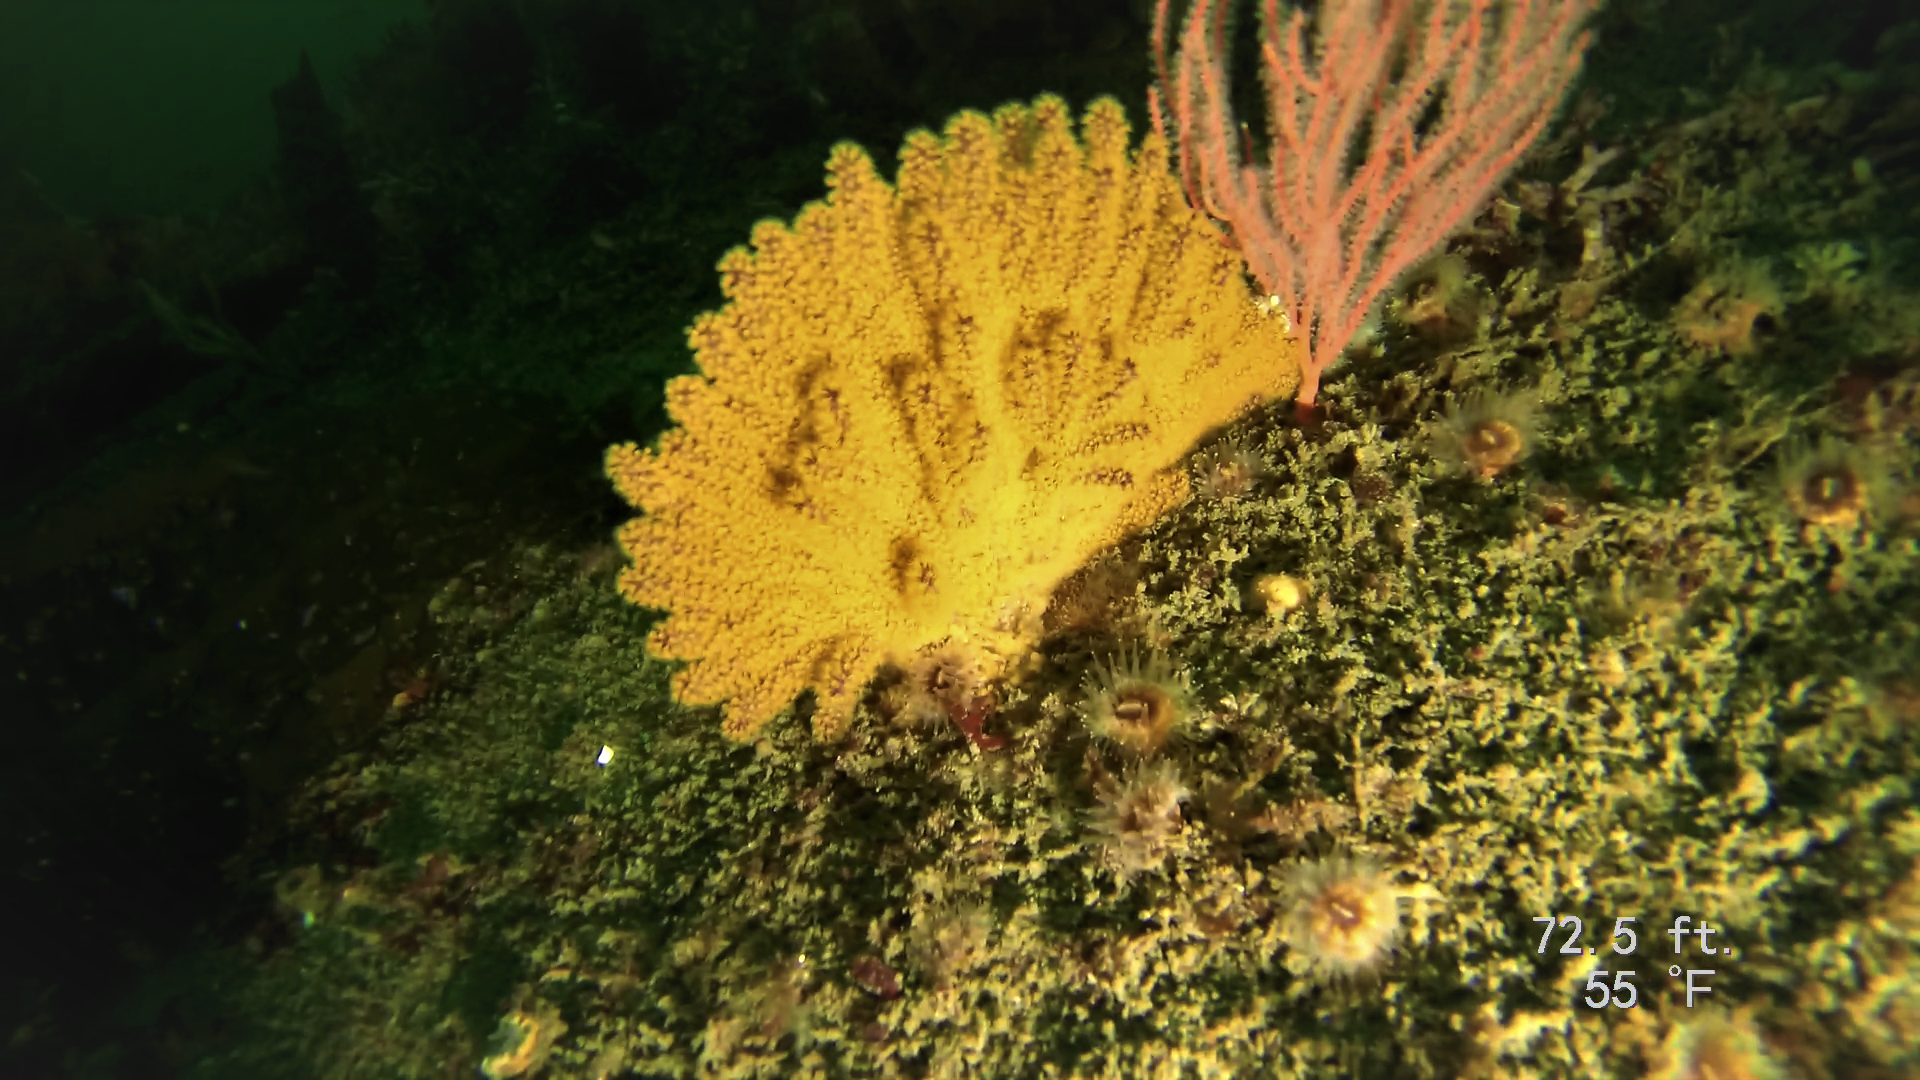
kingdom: Animalia
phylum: Cnidaria
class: Anthozoa
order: Malacalcyonacea
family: Plexauridae
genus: Muricea
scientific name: Muricea californica
